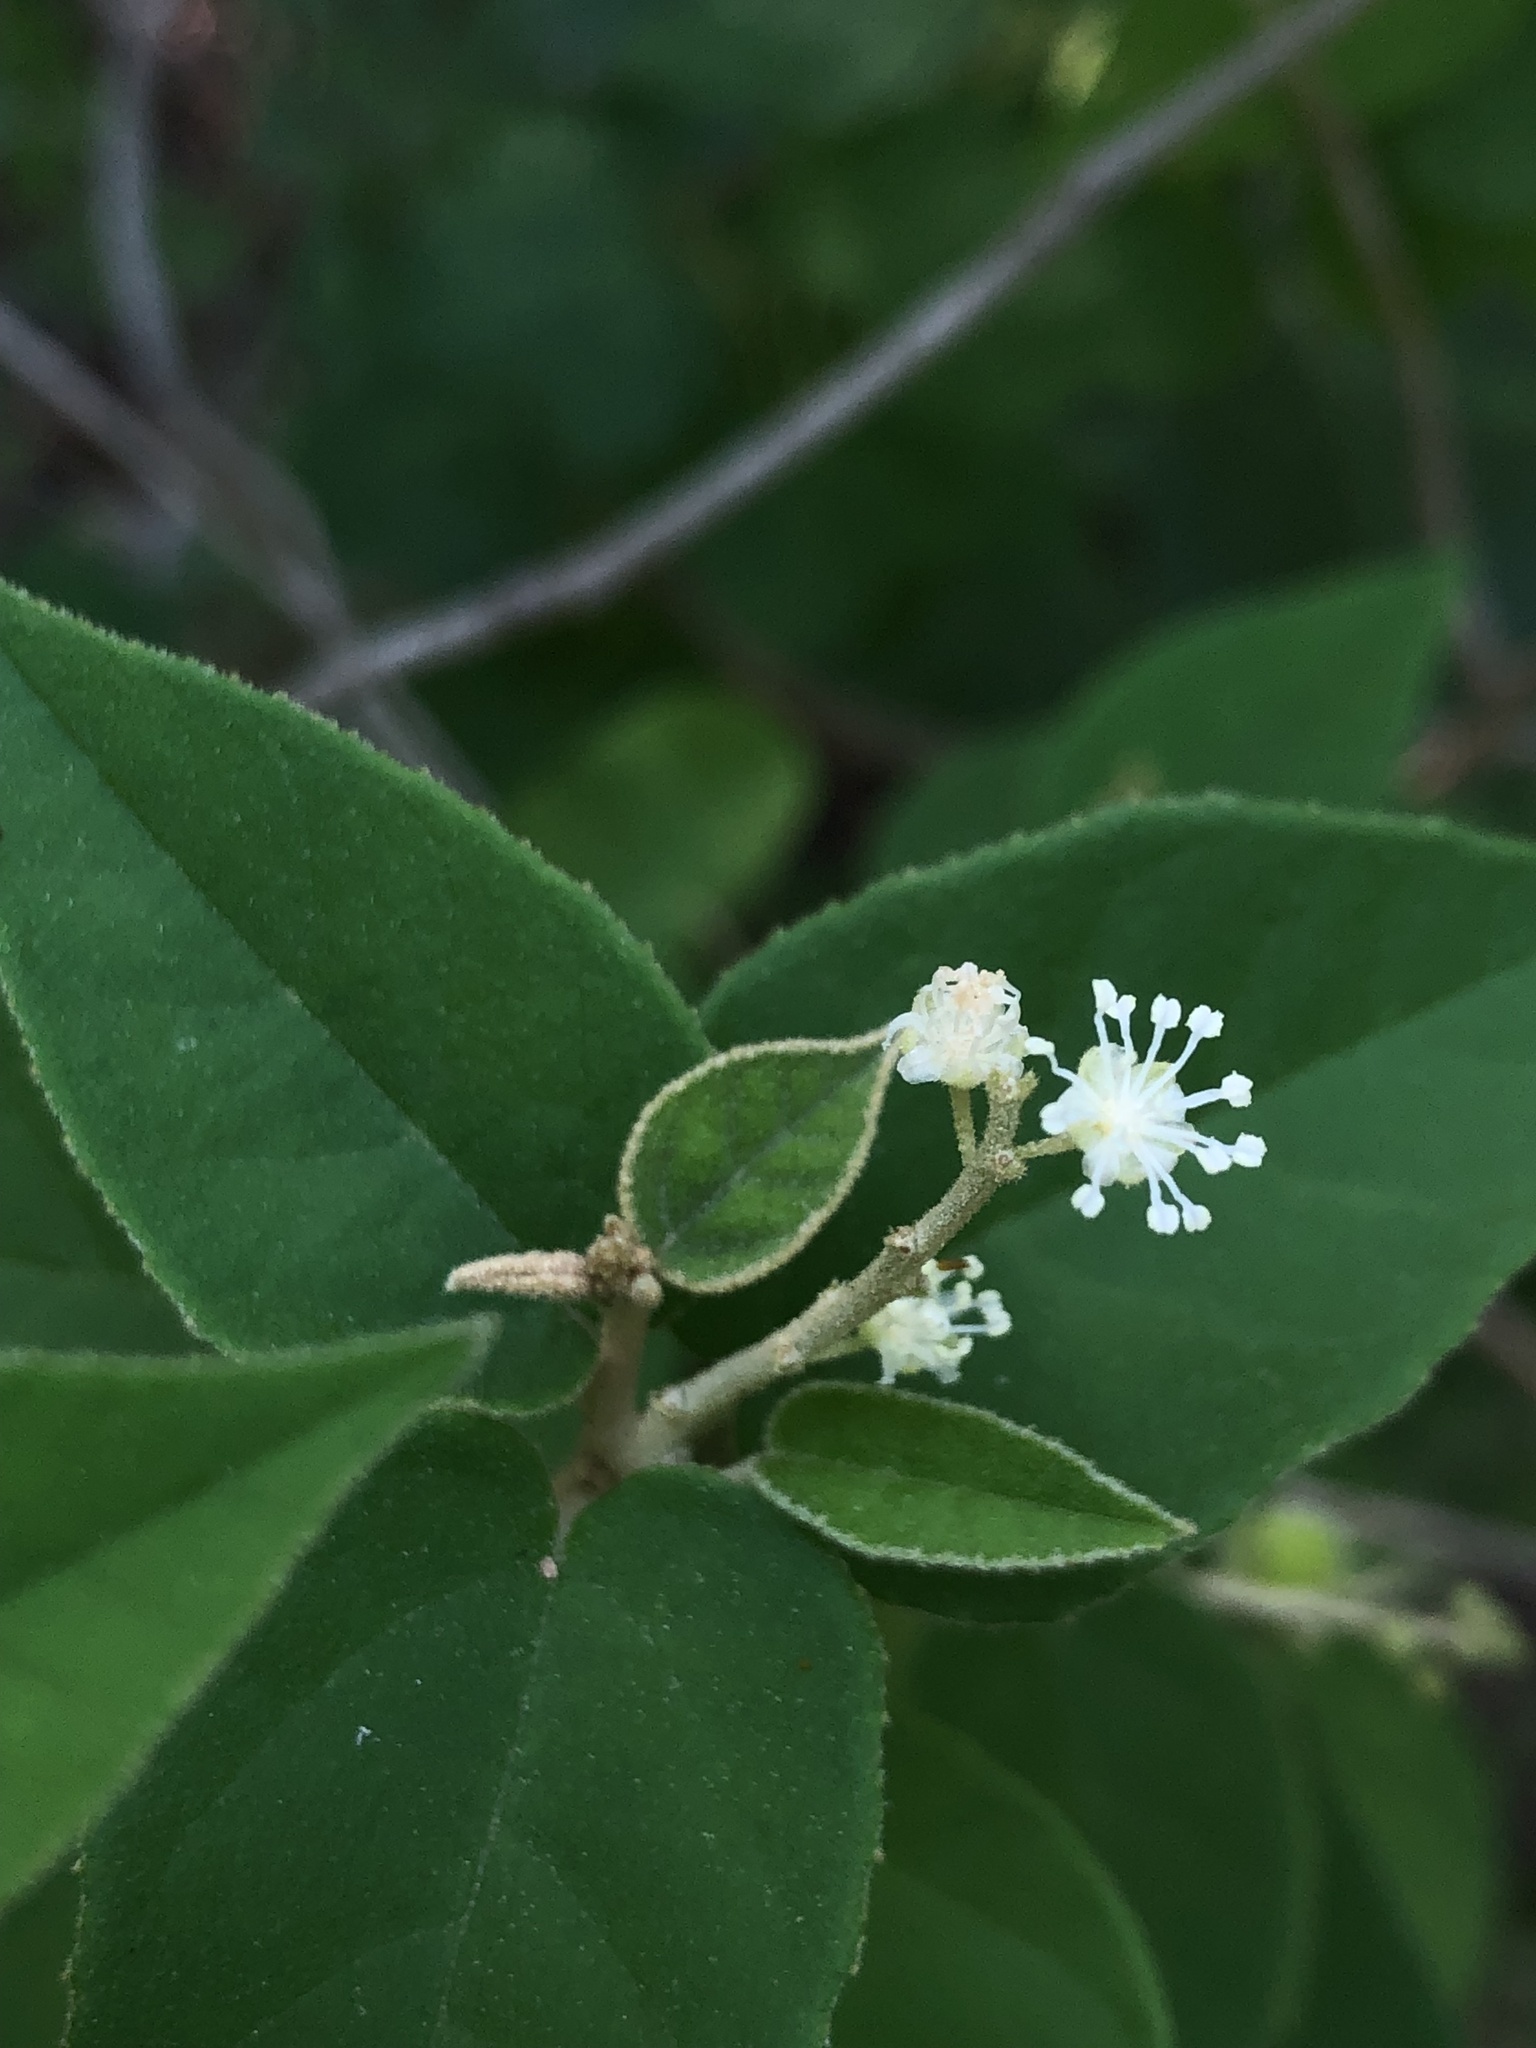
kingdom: Plantae
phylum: Tracheophyta
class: Magnoliopsida
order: Malpighiales
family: Euphorbiaceae
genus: Croton
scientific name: Croton fruticulosus
